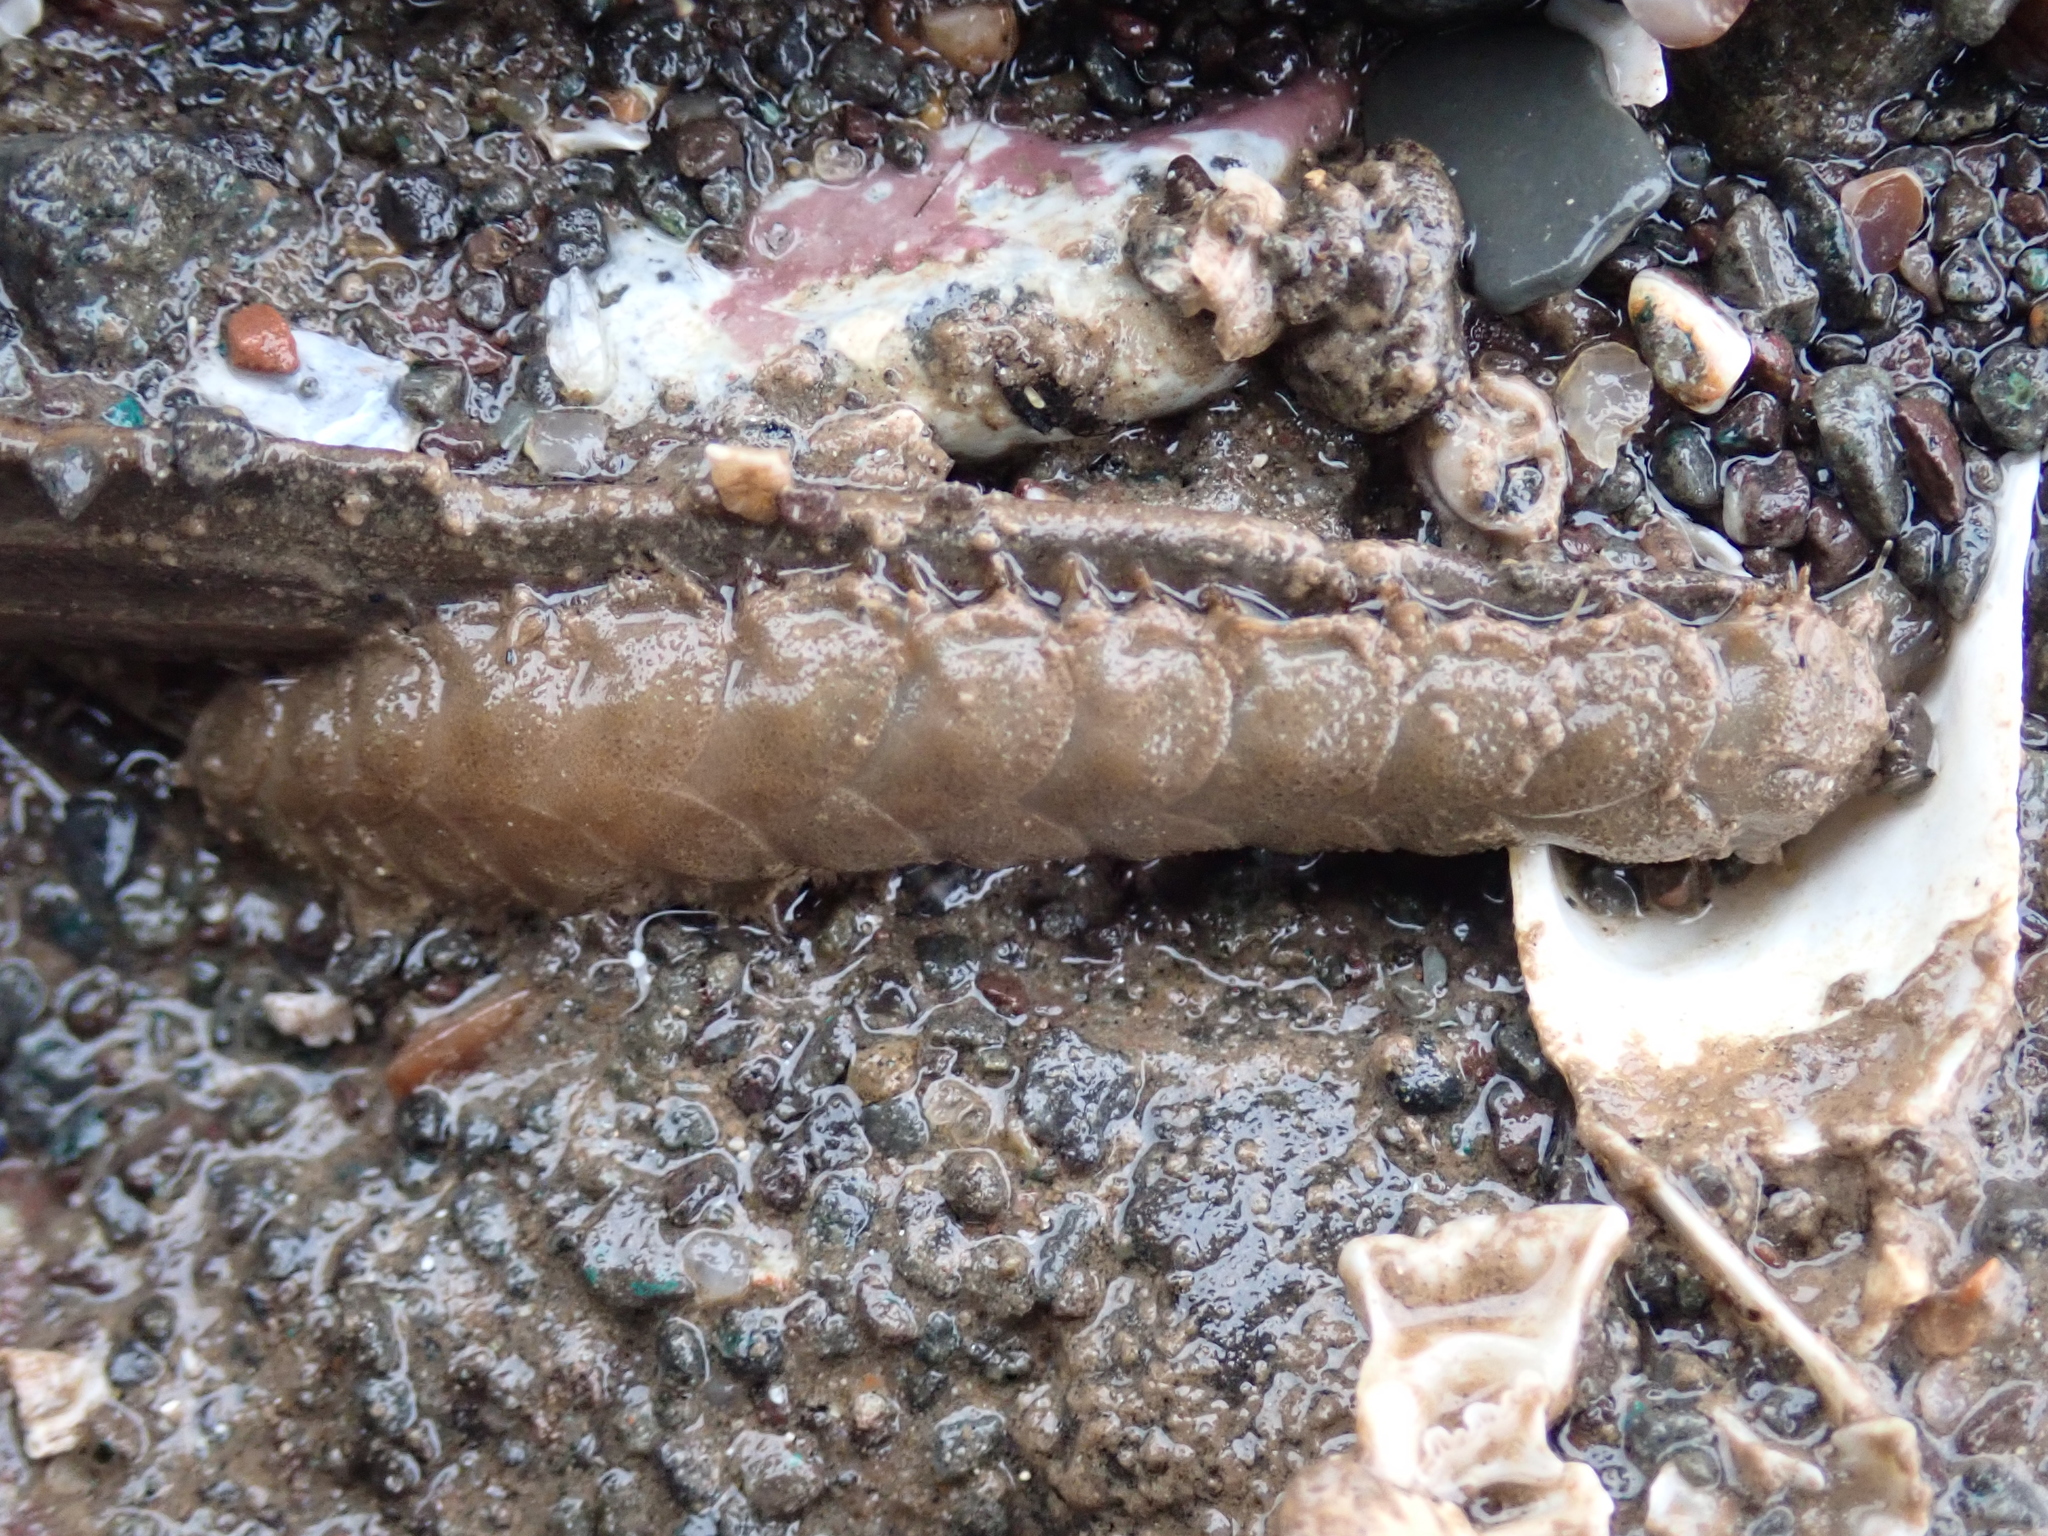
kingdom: Animalia
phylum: Annelida
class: Polychaeta
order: Phyllodocida
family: Polynoidae
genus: Lepidonotus
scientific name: Lepidonotus squamatus
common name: Twelve-scaled worm
